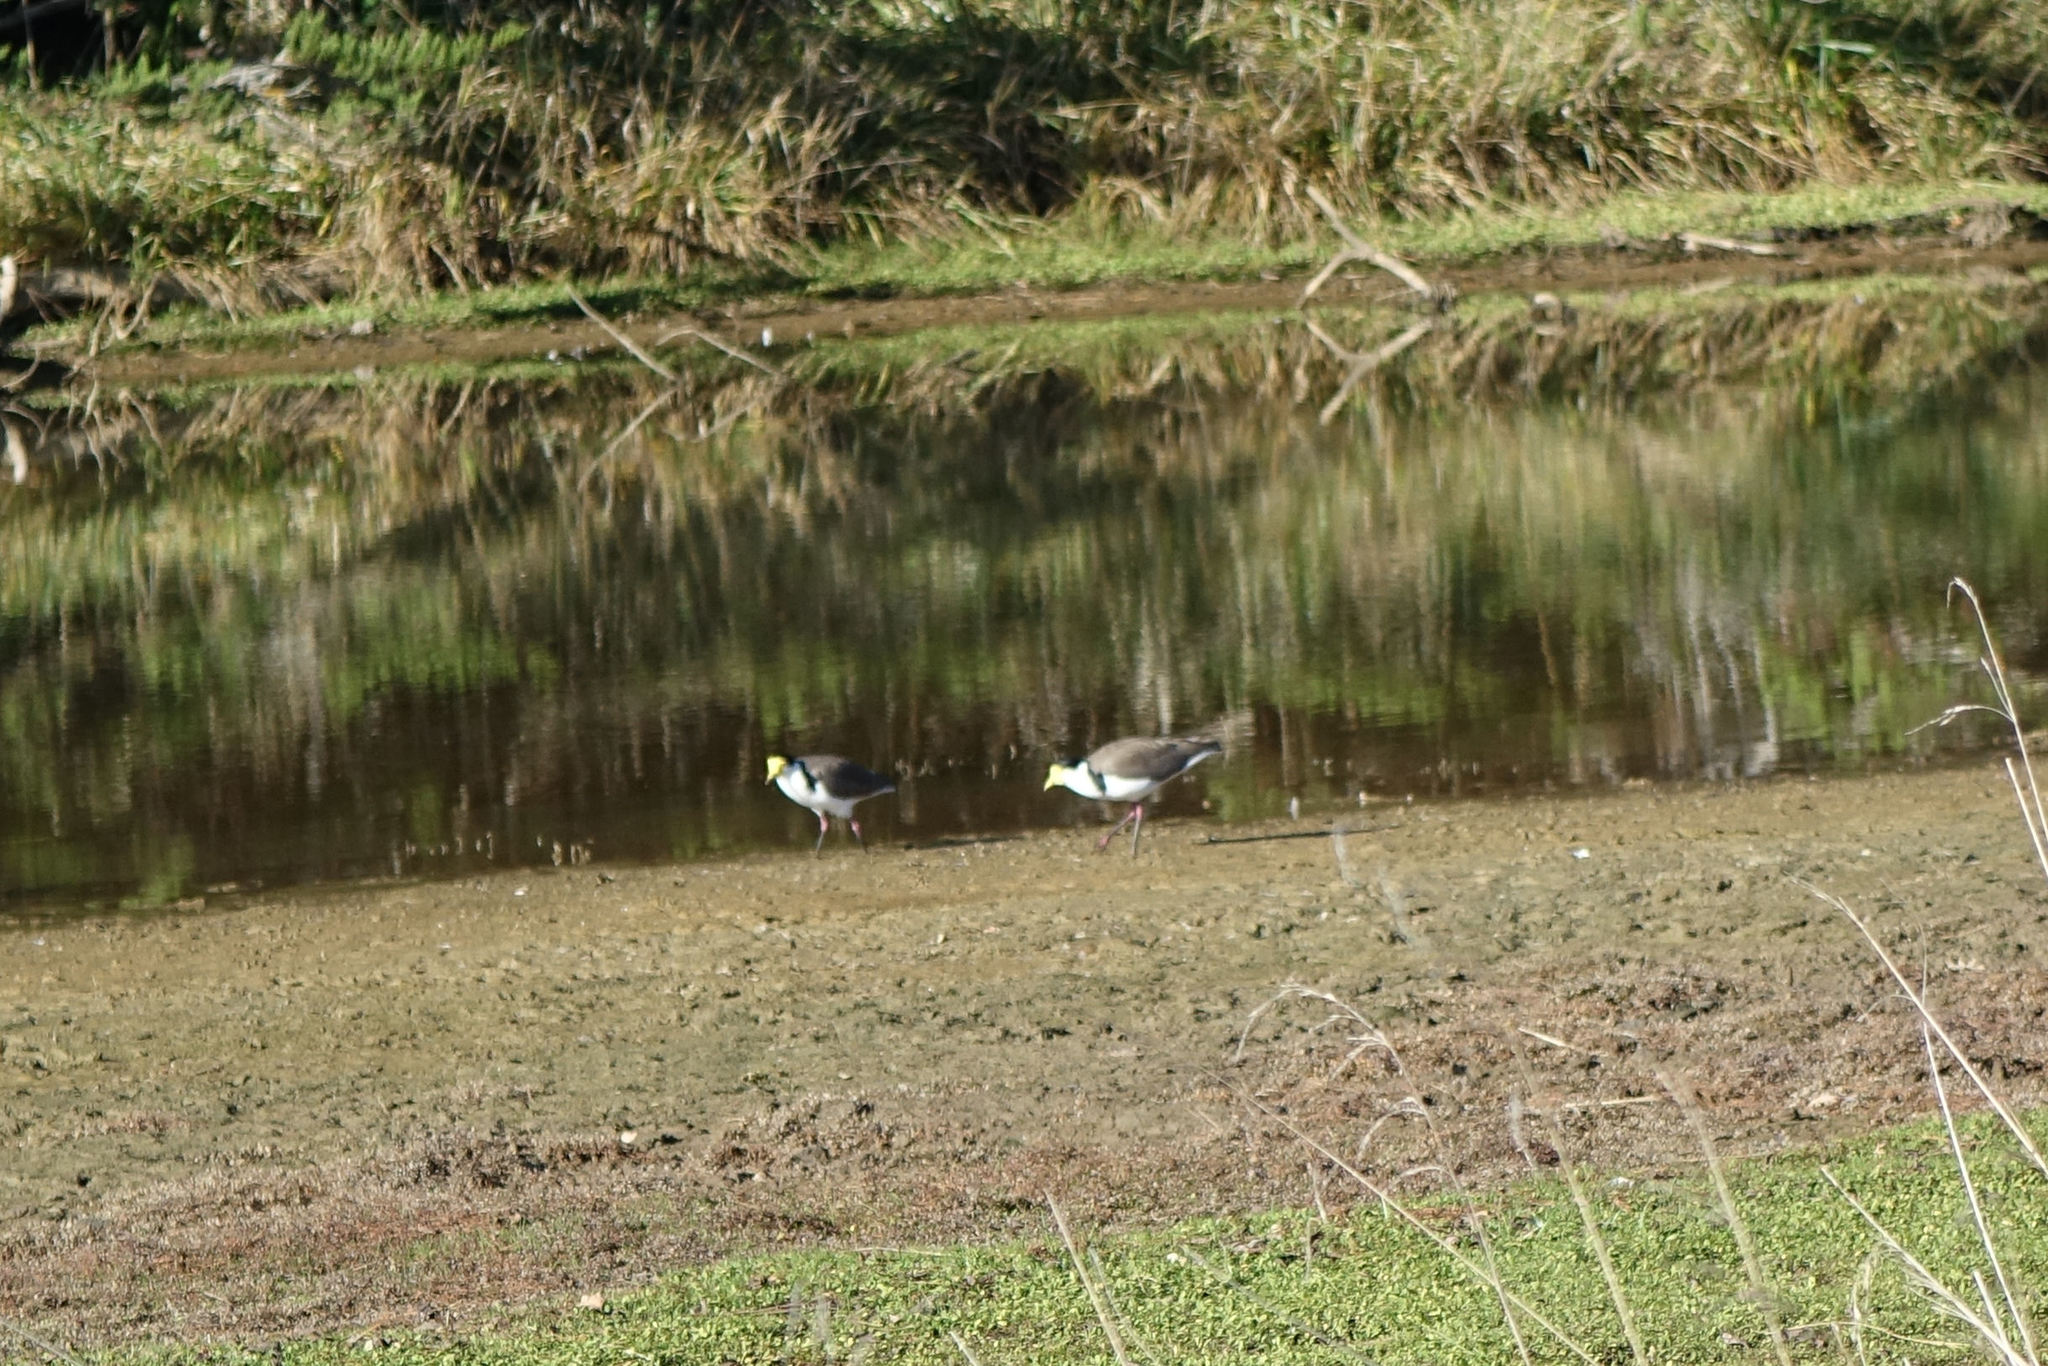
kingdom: Animalia
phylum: Chordata
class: Aves
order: Charadriiformes
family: Charadriidae
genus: Vanellus
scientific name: Vanellus miles
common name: Masked lapwing
